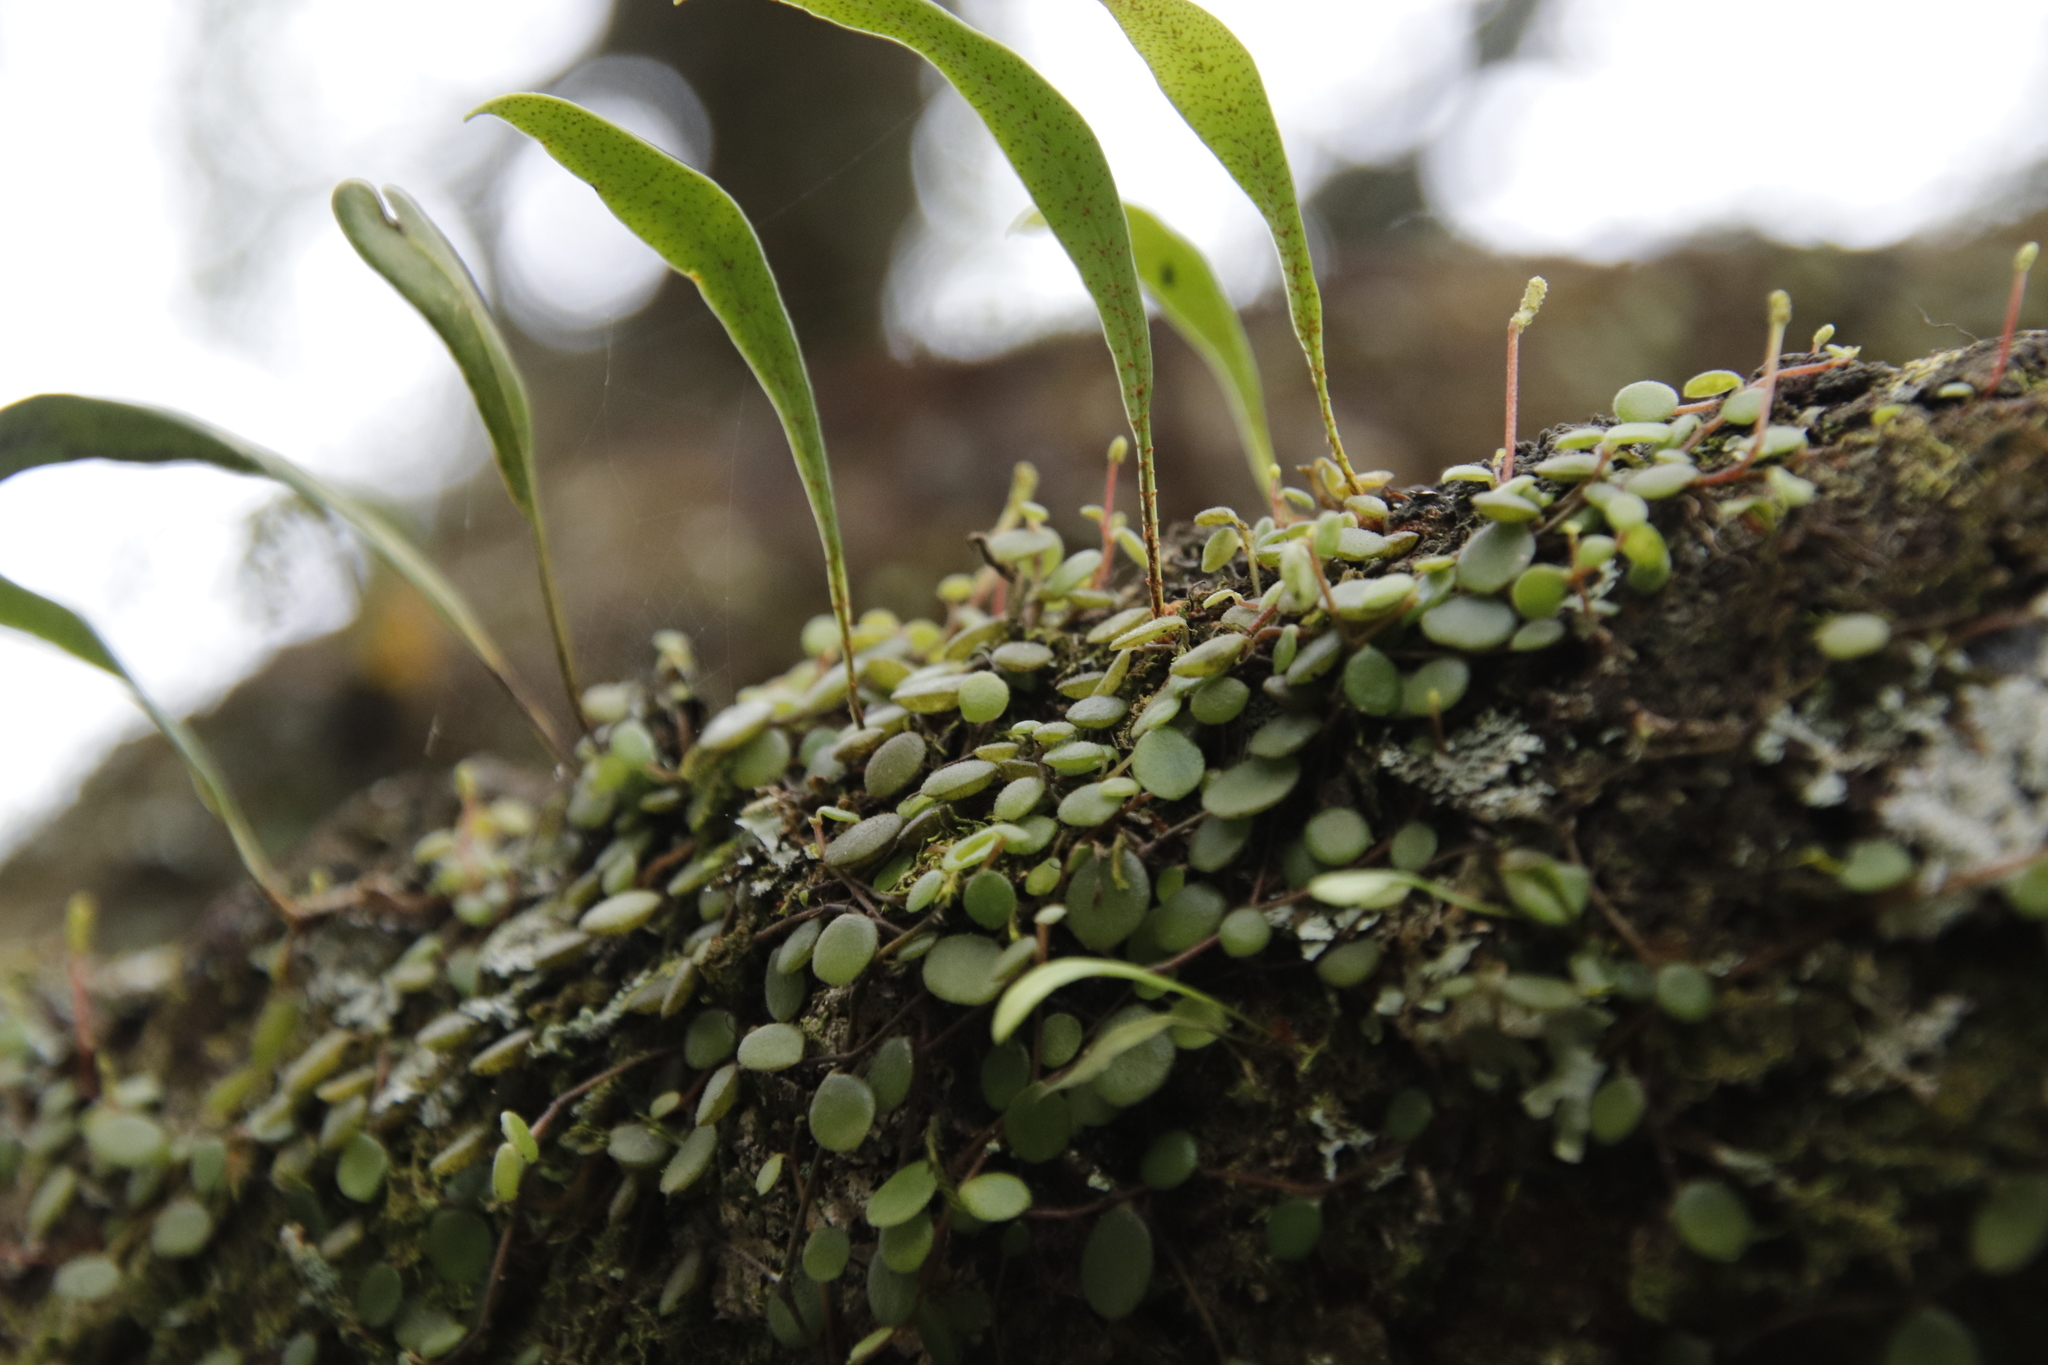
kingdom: Plantae
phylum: Tracheophyta
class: Polypodiopsida
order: Polypodiales
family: Polypodiaceae
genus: Pleopeltis
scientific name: Pleopeltis macrocarpa
